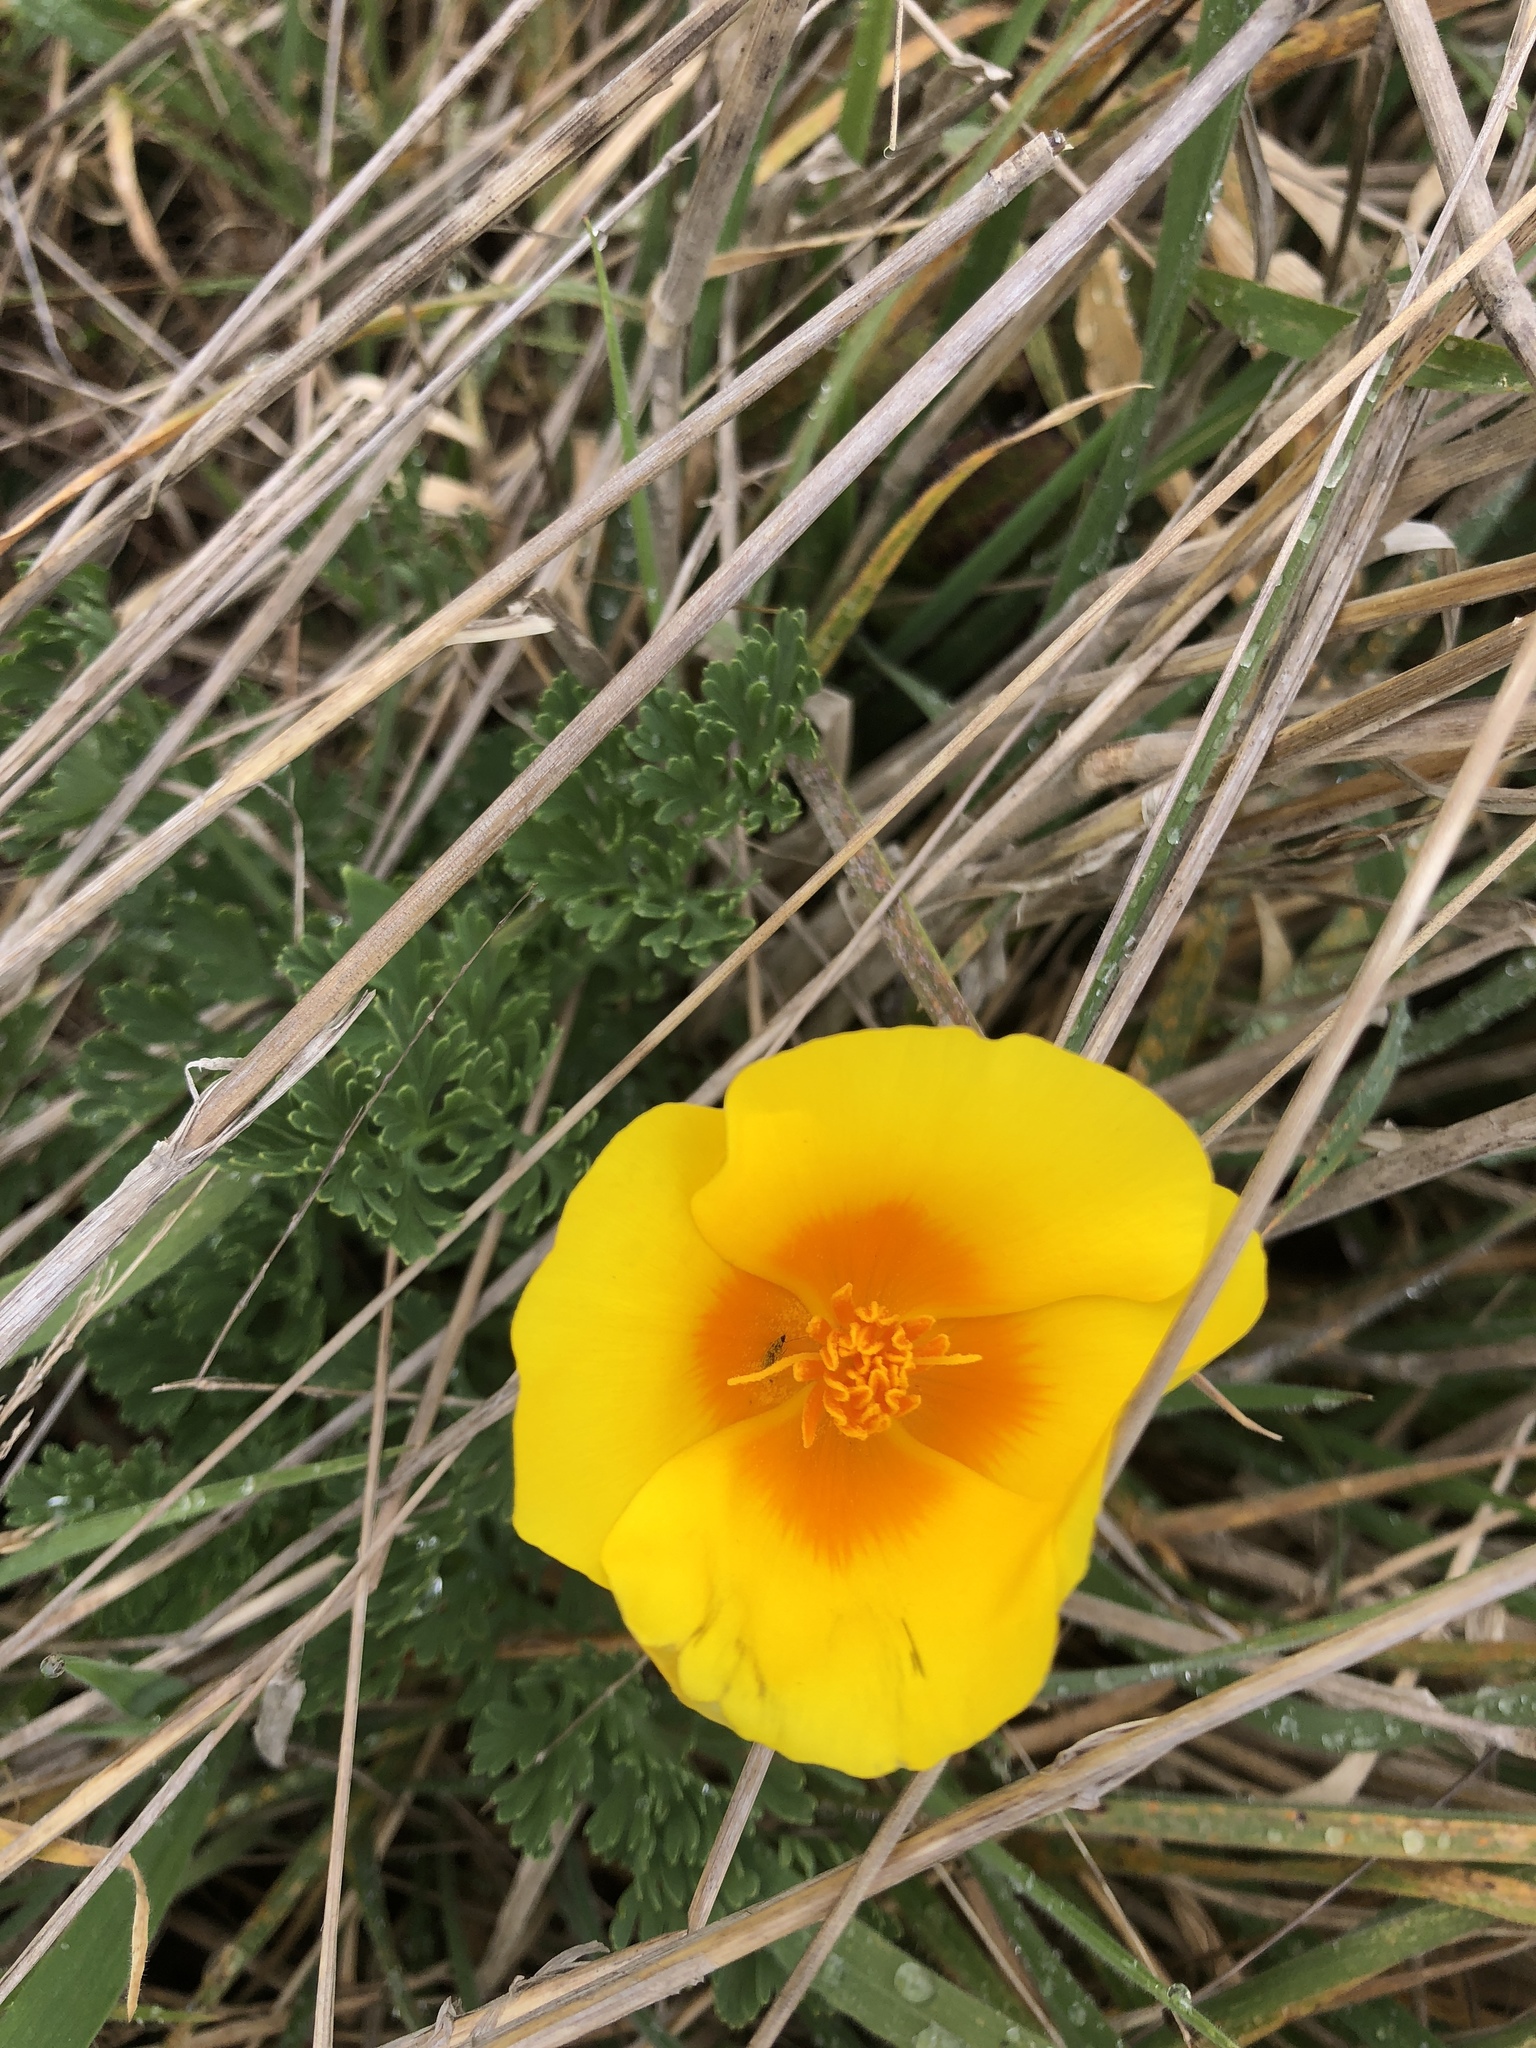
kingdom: Plantae
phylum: Tracheophyta
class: Magnoliopsida
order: Ranunculales
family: Papaveraceae
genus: Eschscholzia
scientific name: Eschscholzia californica
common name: California poppy
